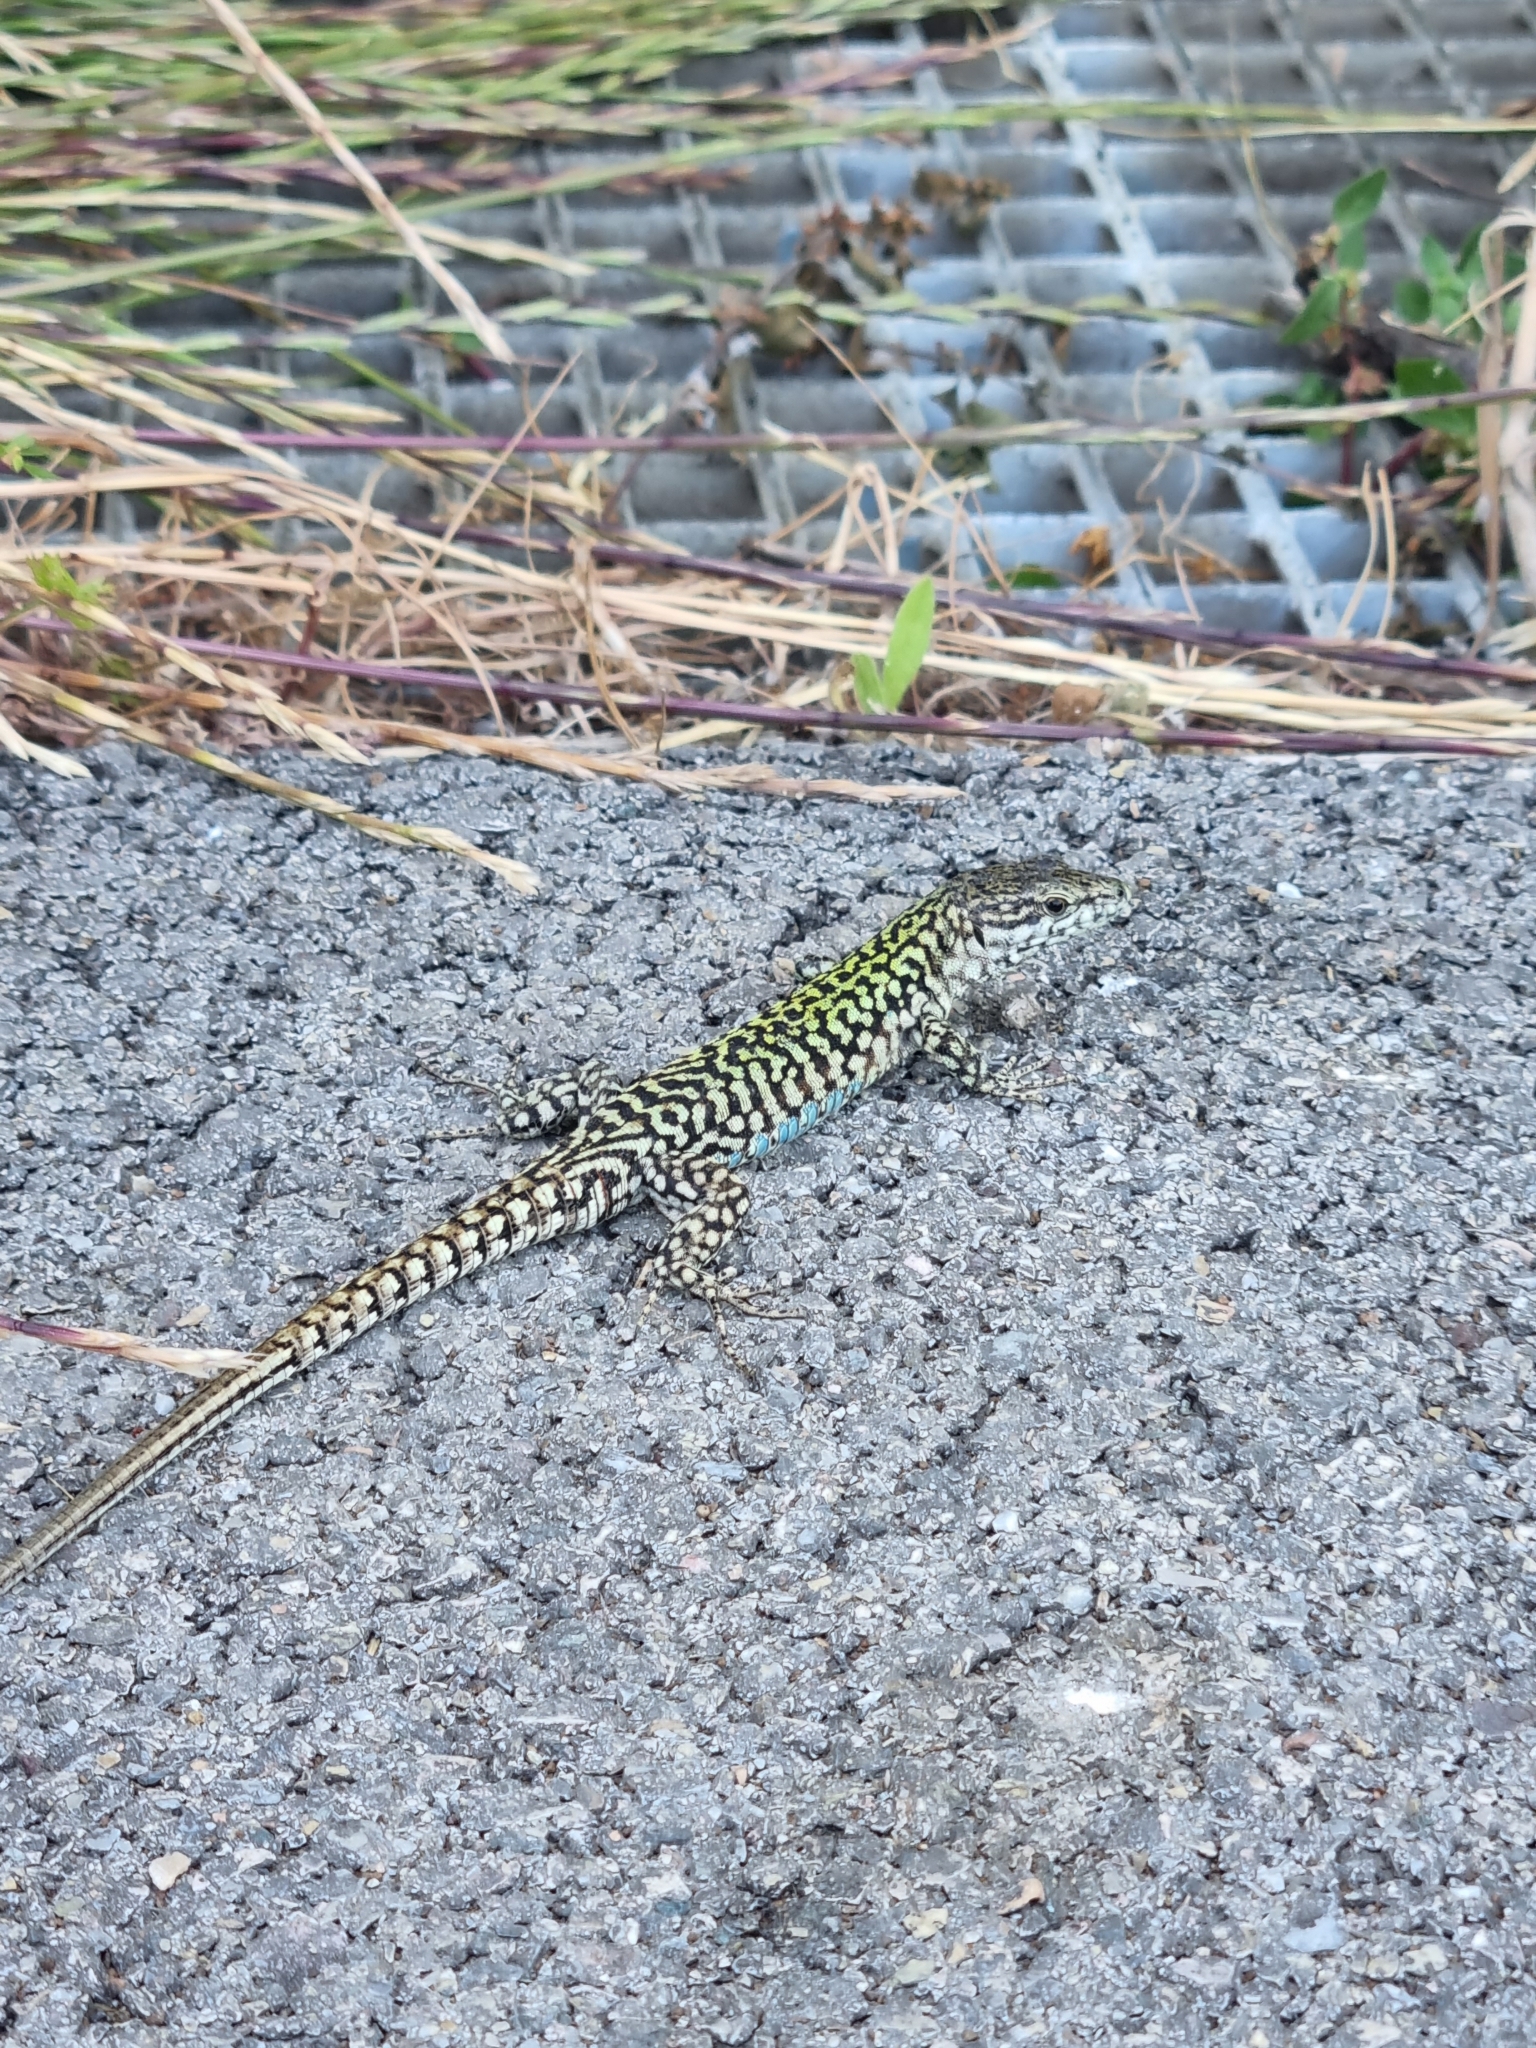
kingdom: Animalia
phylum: Chordata
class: Squamata
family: Lacertidae
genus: Podarcis
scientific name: Podarcis muralis
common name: Common wall lizard
